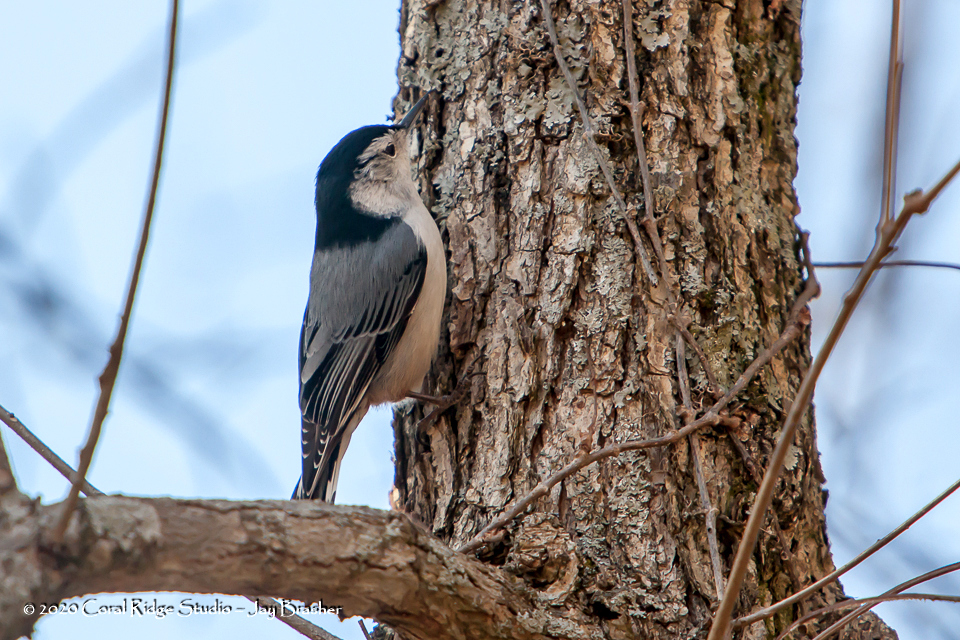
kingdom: Animalia
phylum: Chordata
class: Aves
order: Passeriformes
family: Sittidae
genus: Sitta
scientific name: Sitta carolinensis
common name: White-breasted nuthatch
